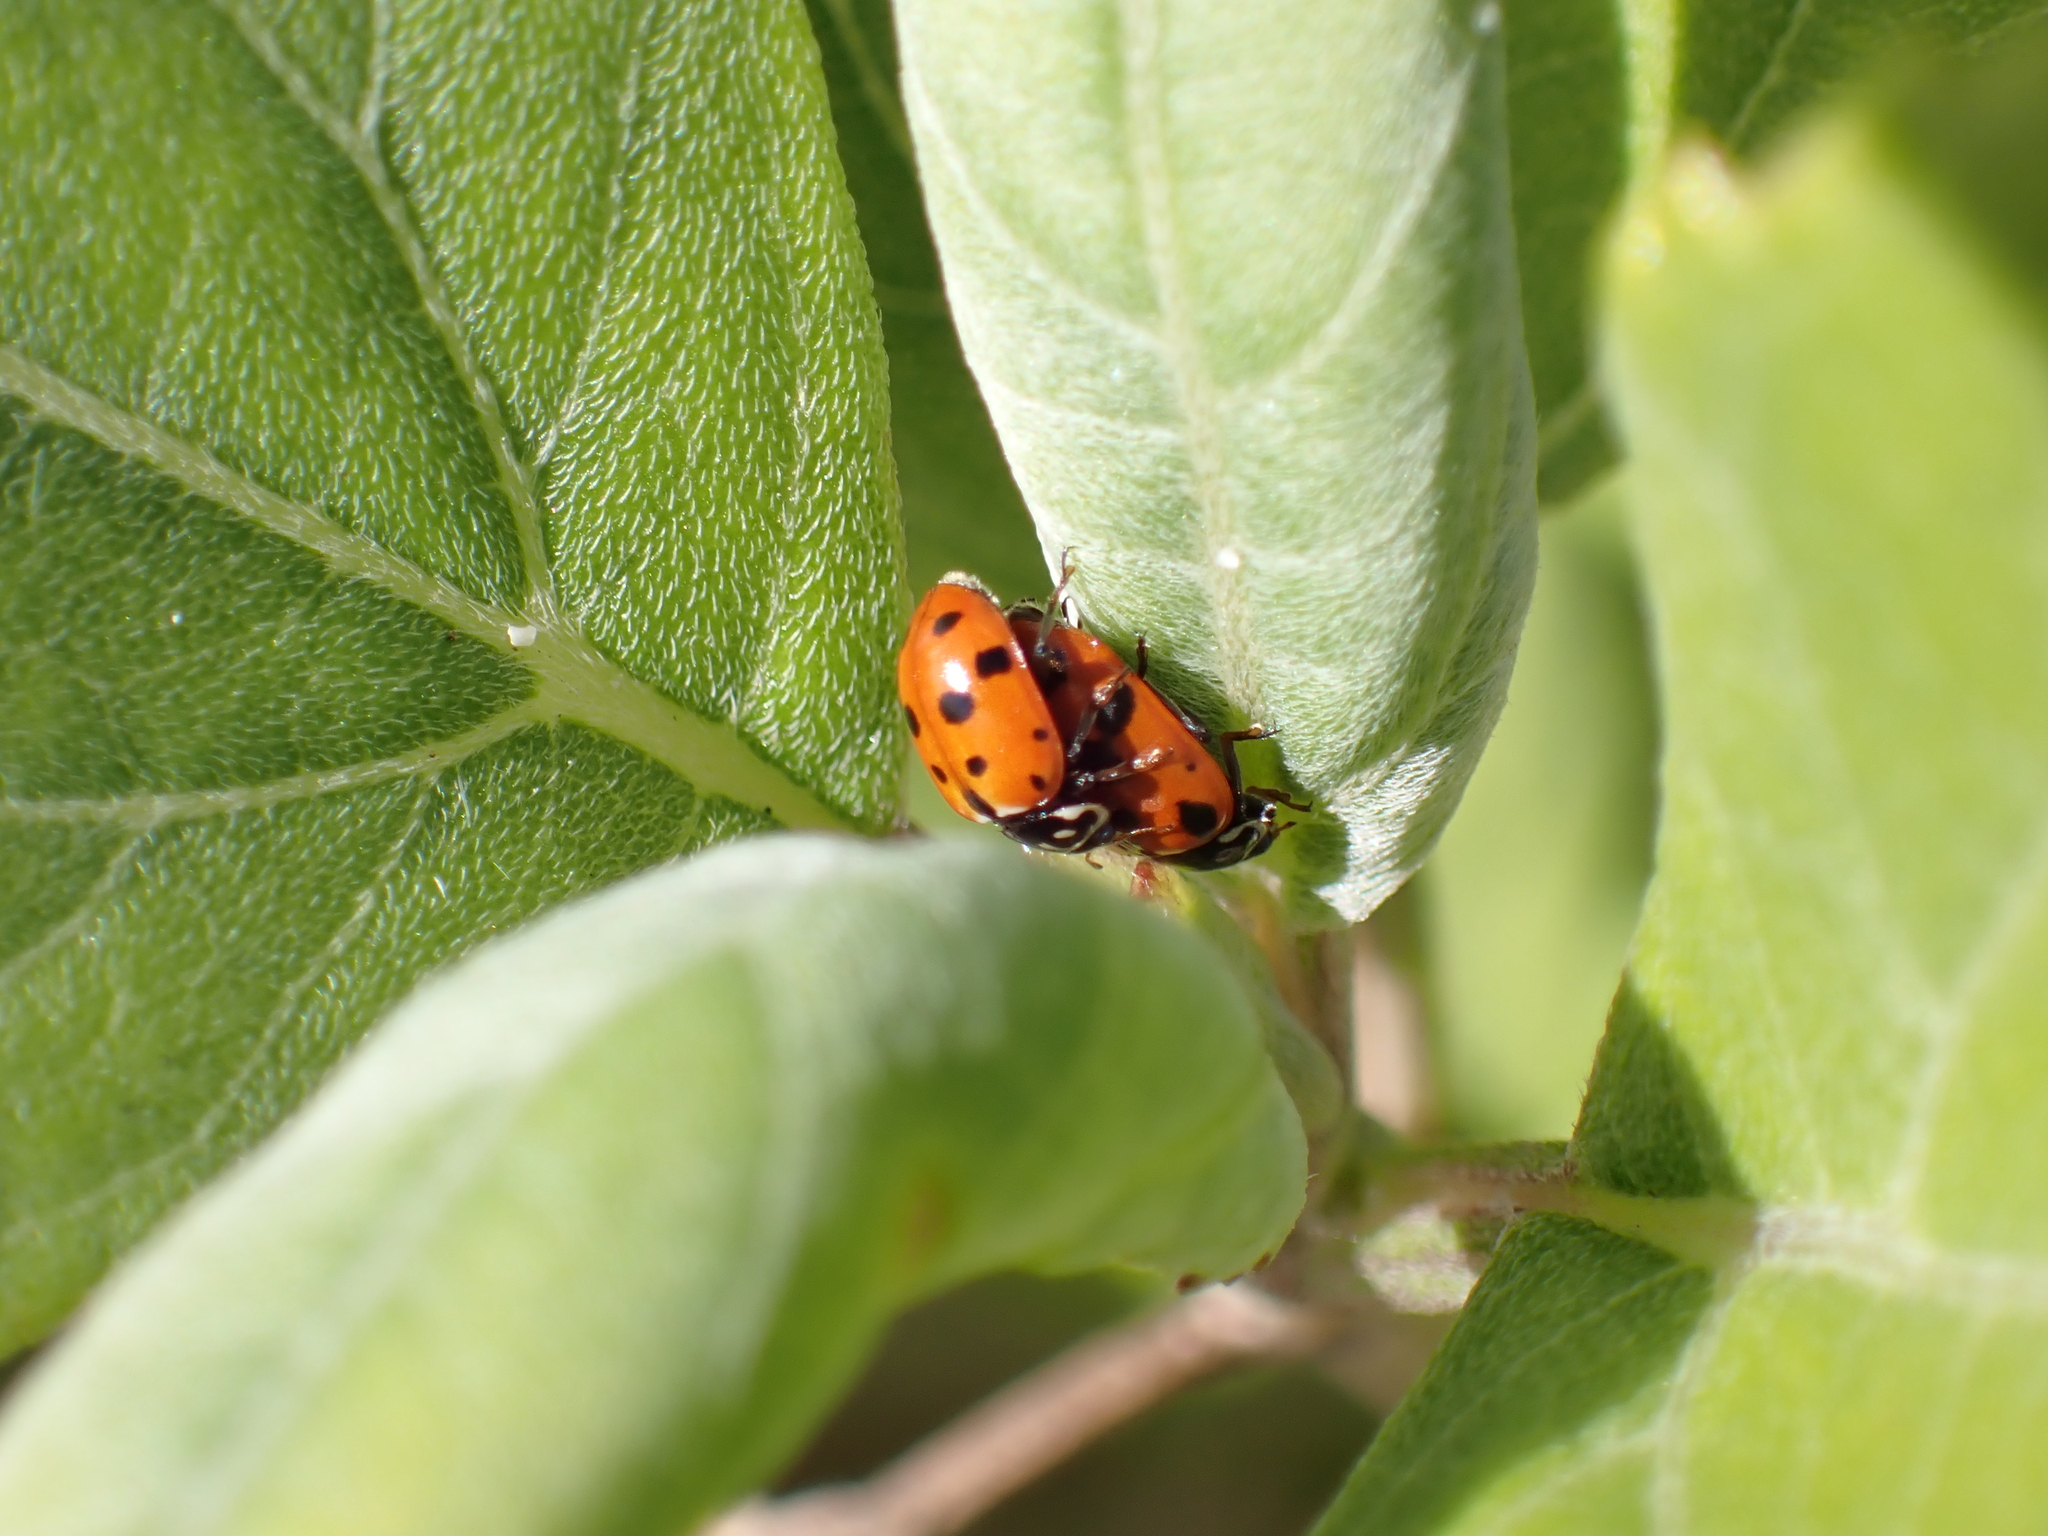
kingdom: Animalia
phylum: Arthropoda
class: Insecta
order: Coleoptera
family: Coccinellidae
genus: Hippodamia
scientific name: Hippodamia variegata
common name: Ladybird beetle
